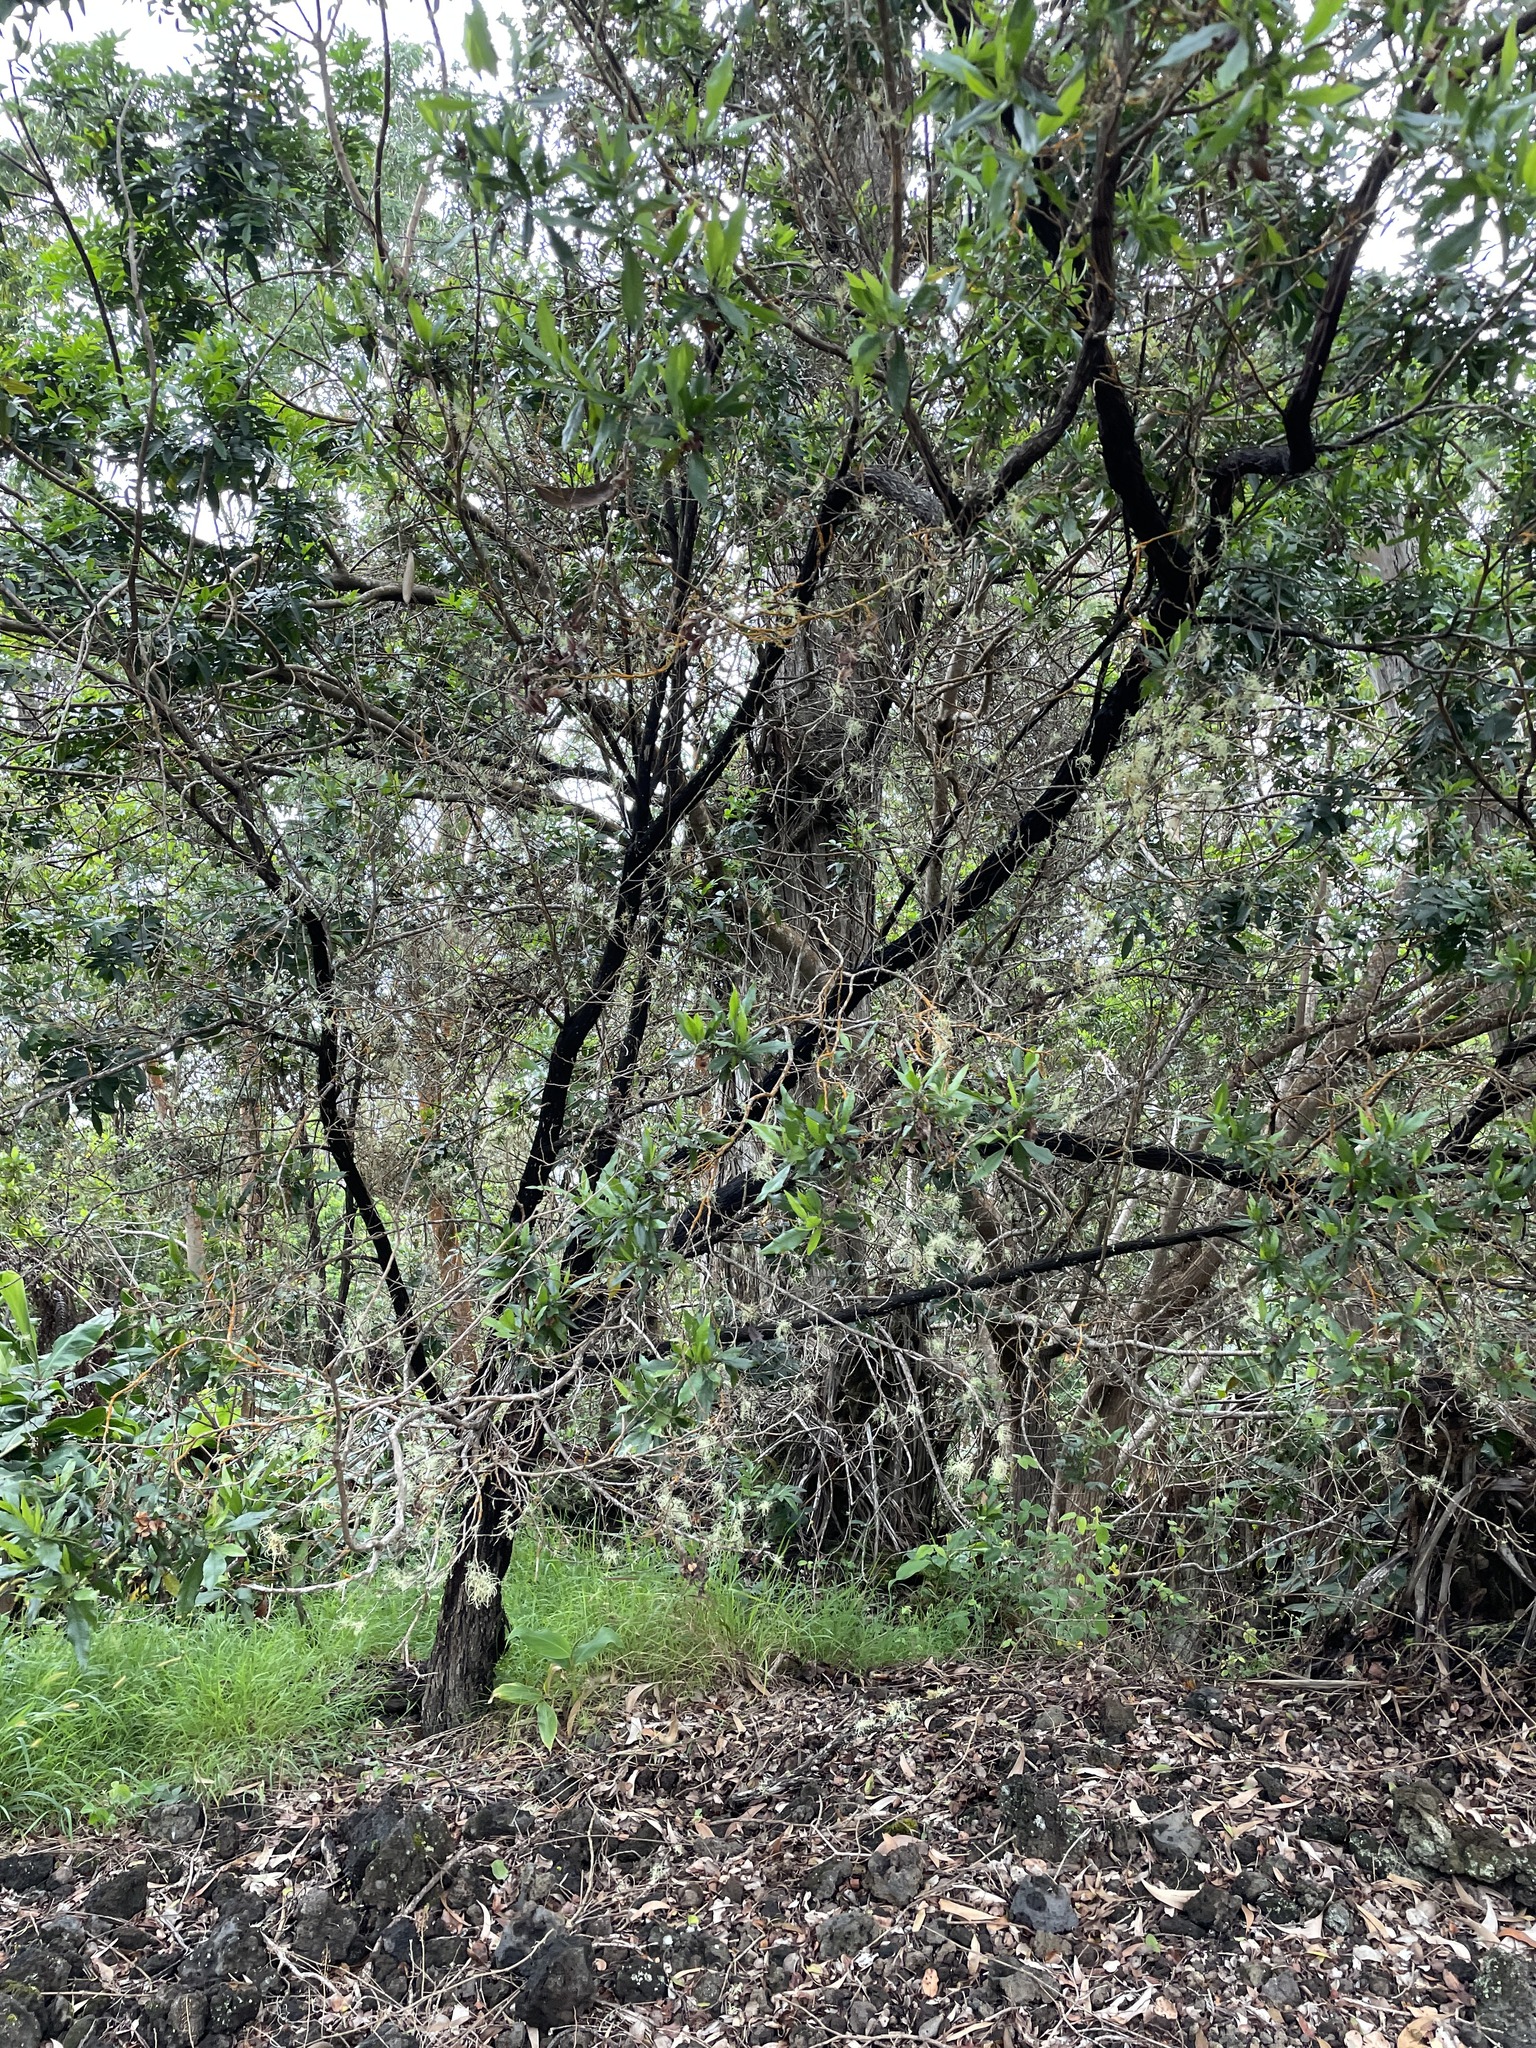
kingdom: Plantae
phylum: Tracheophyta
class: Magnoliopsida
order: Sapindales
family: Sapindaceae
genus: Dodonaea
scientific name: Dodonaea viscosa
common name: Hopbush
